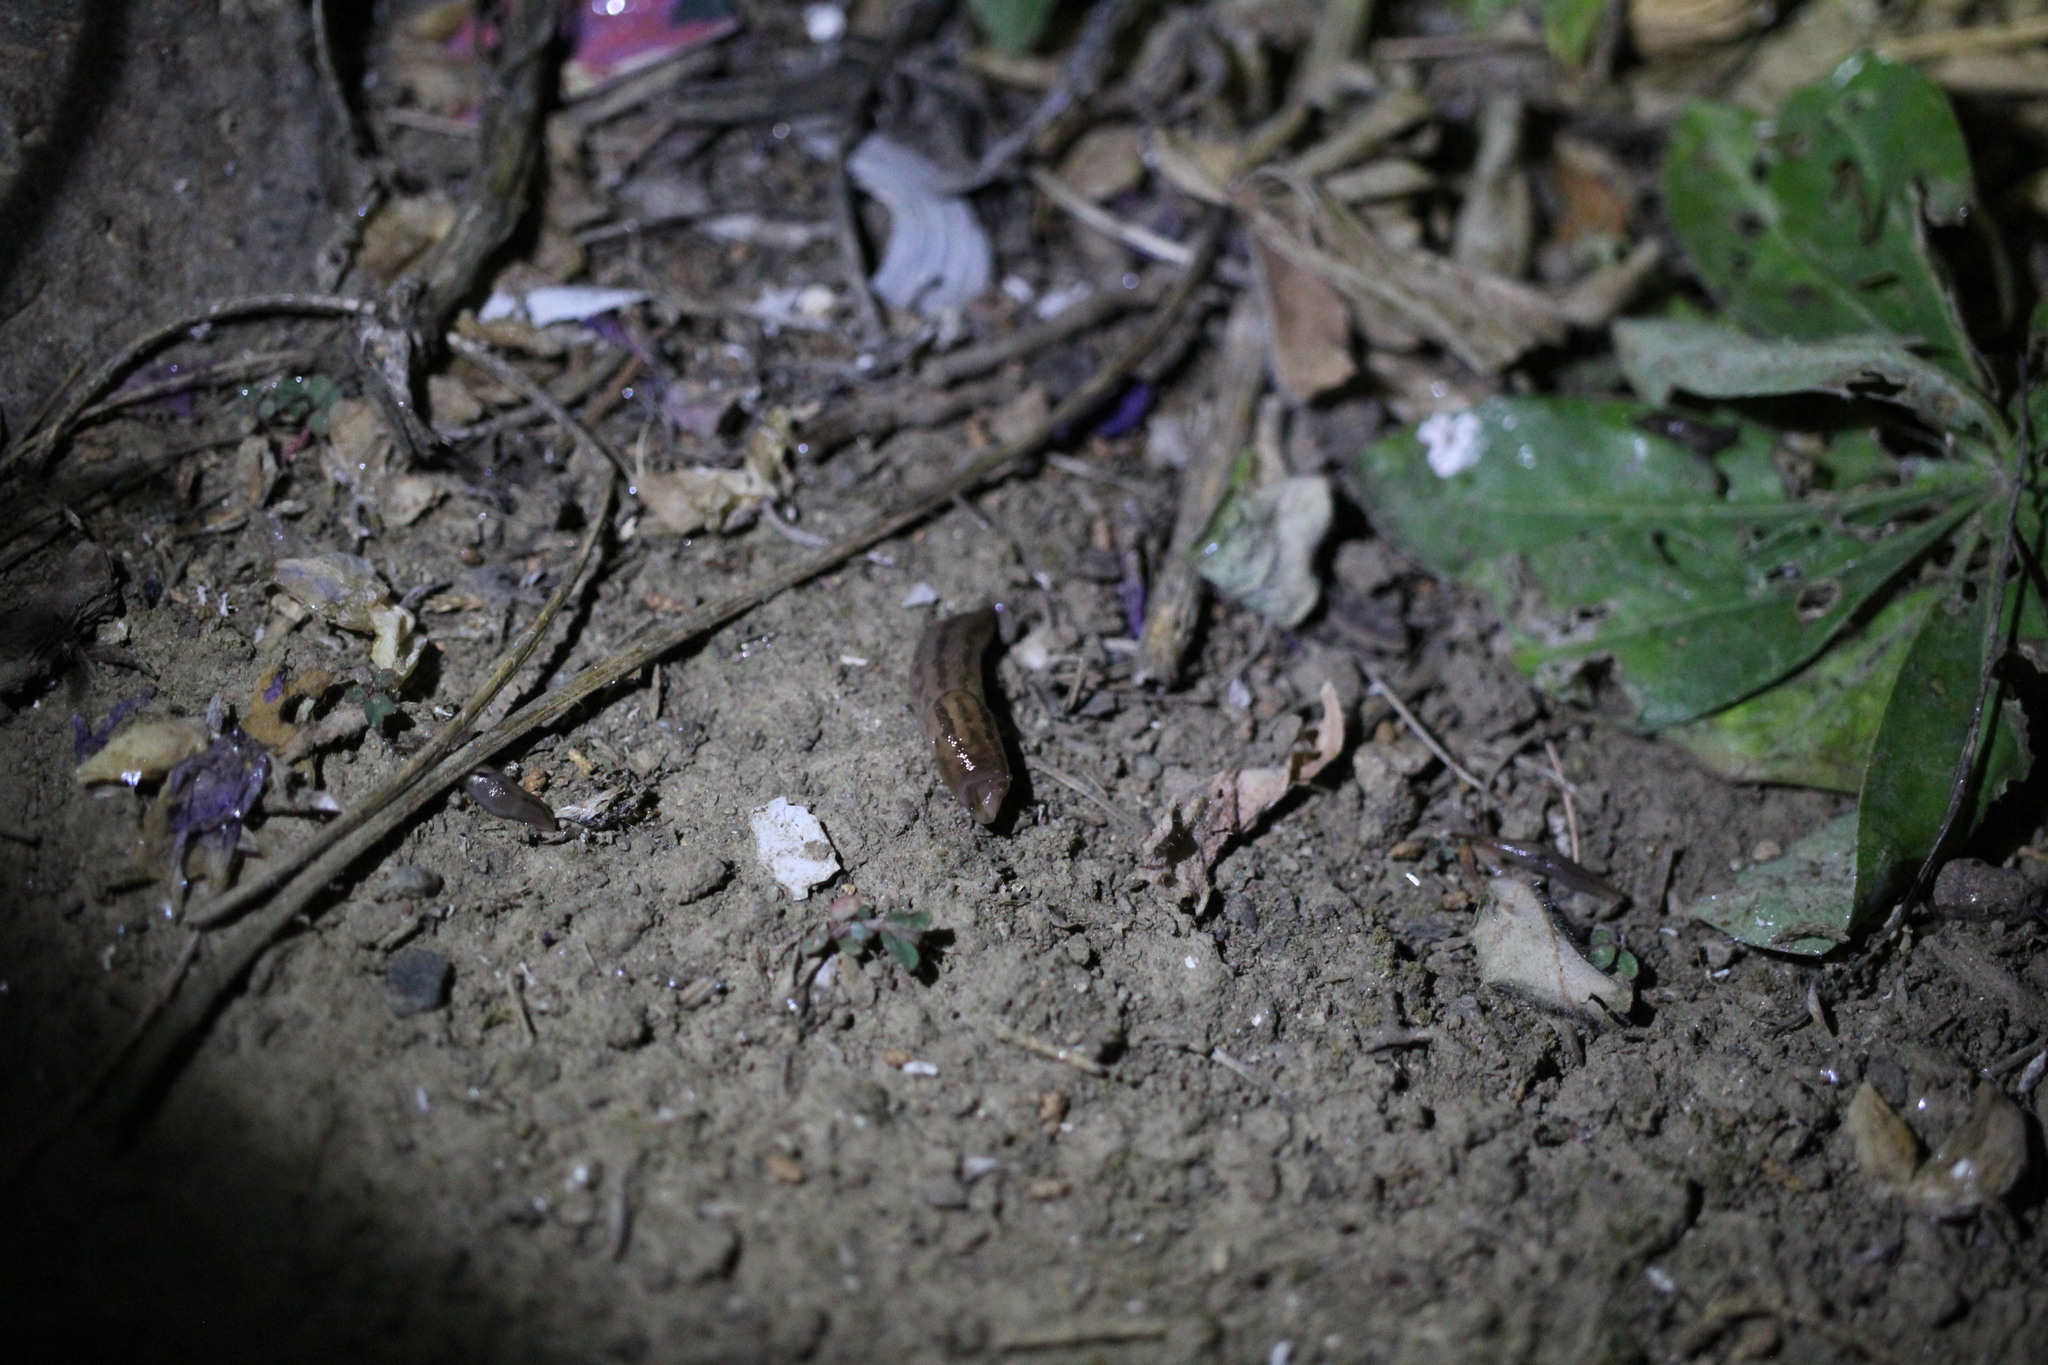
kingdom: Animalia
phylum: Mollusca
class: Gastropoda
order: Stylommatophora
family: Limacidae
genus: Ambigolimax
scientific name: Ambigolimax
